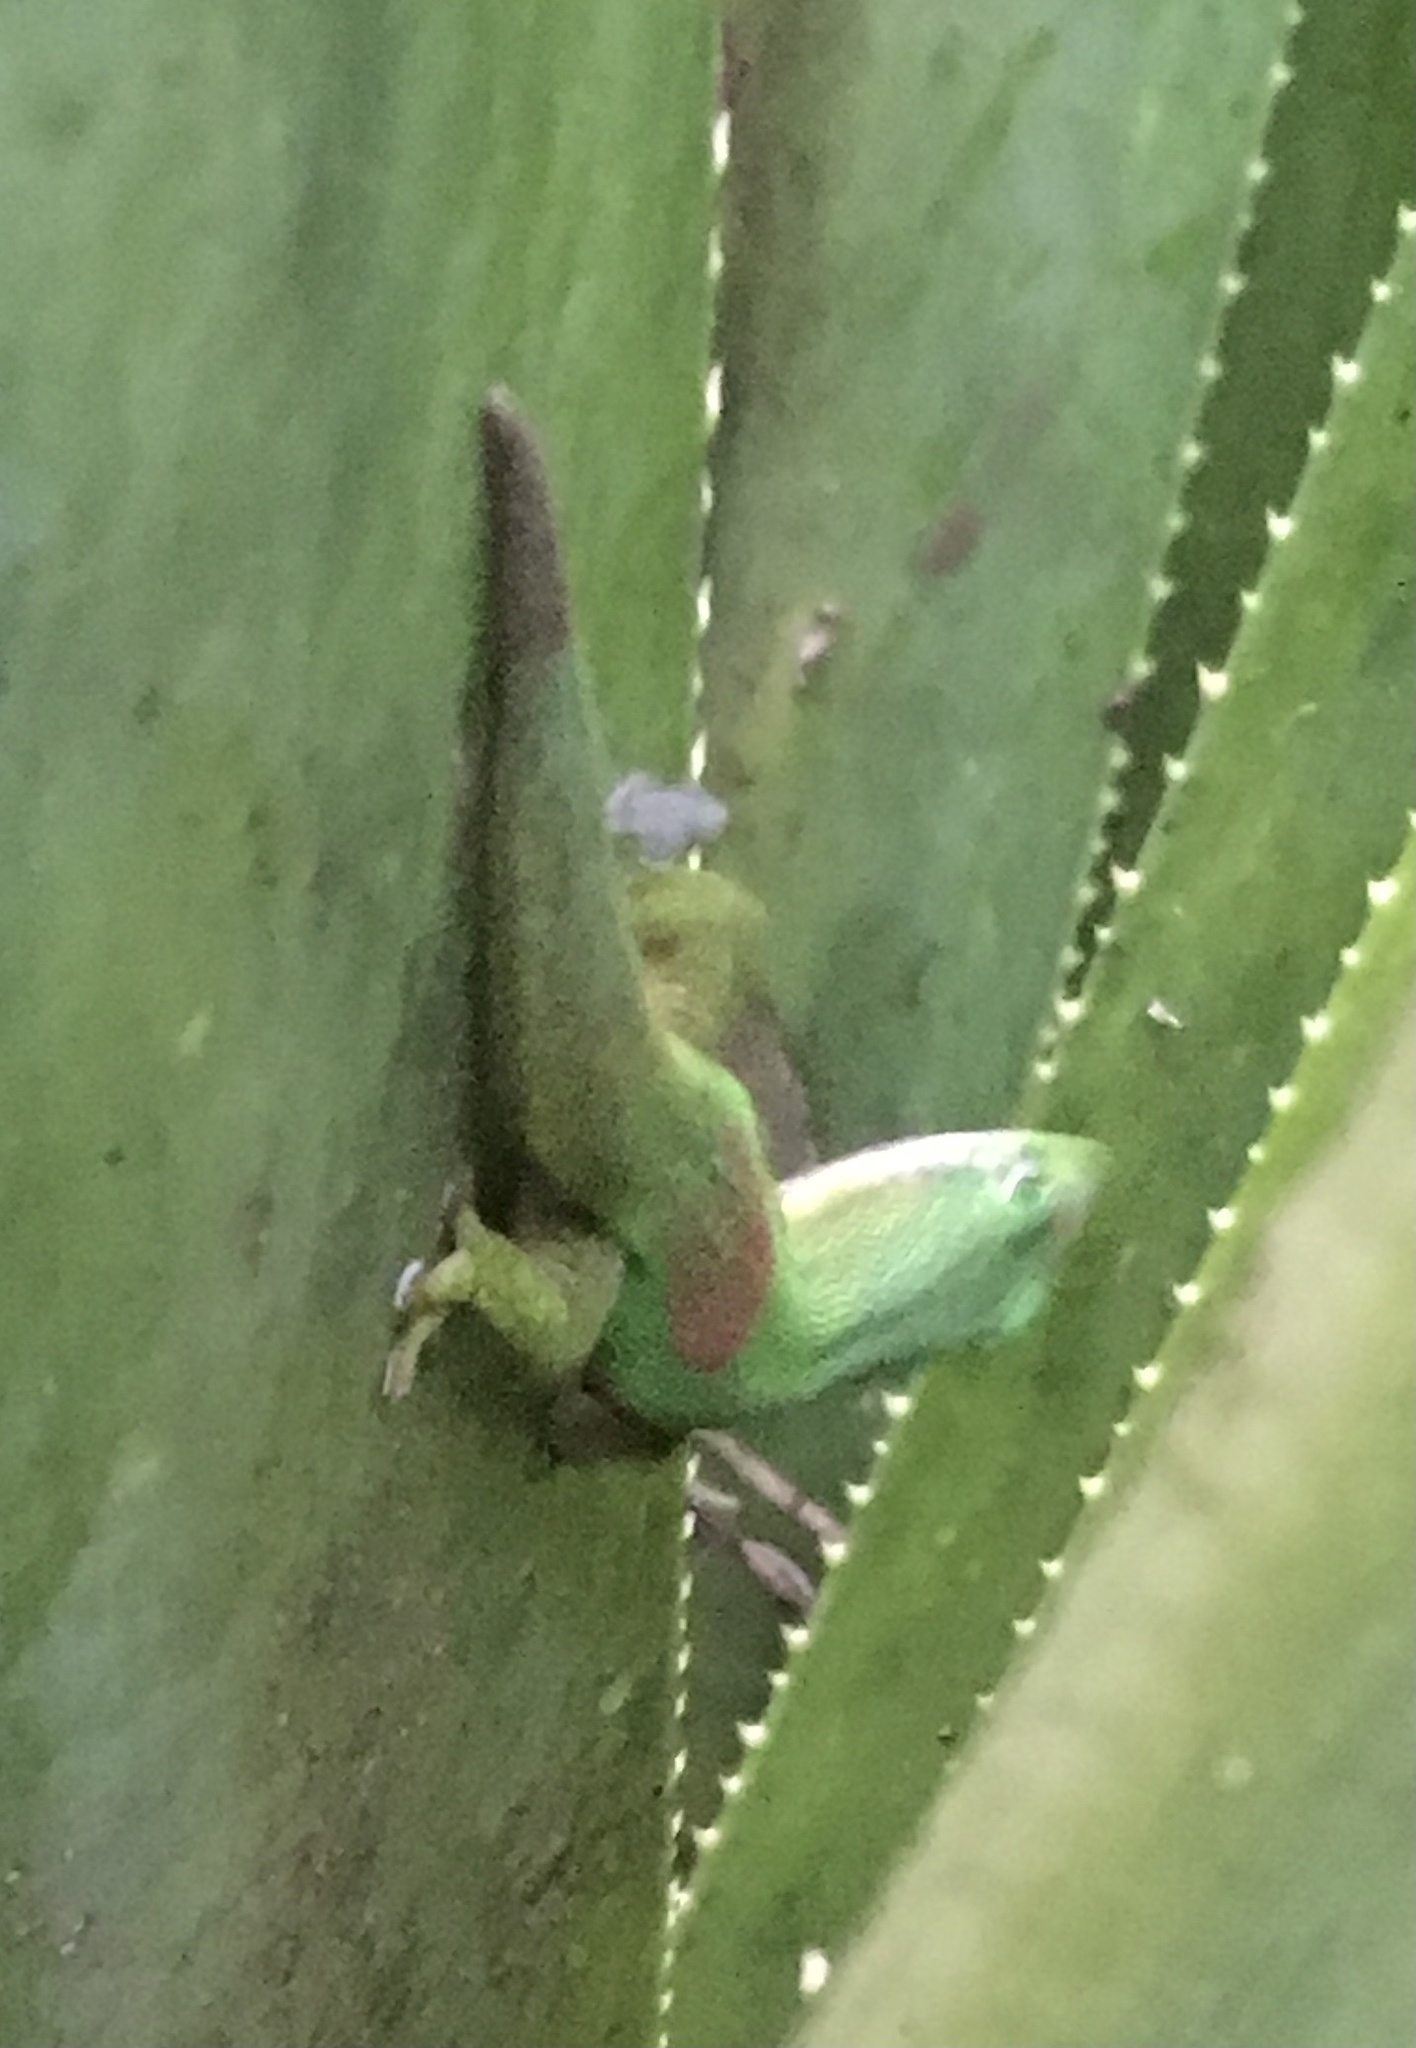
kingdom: Animalia
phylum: Chordata
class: Squamata
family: Gekkonidae
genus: Phelsuma
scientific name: Phelsuma lineata
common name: Lined day gecko
